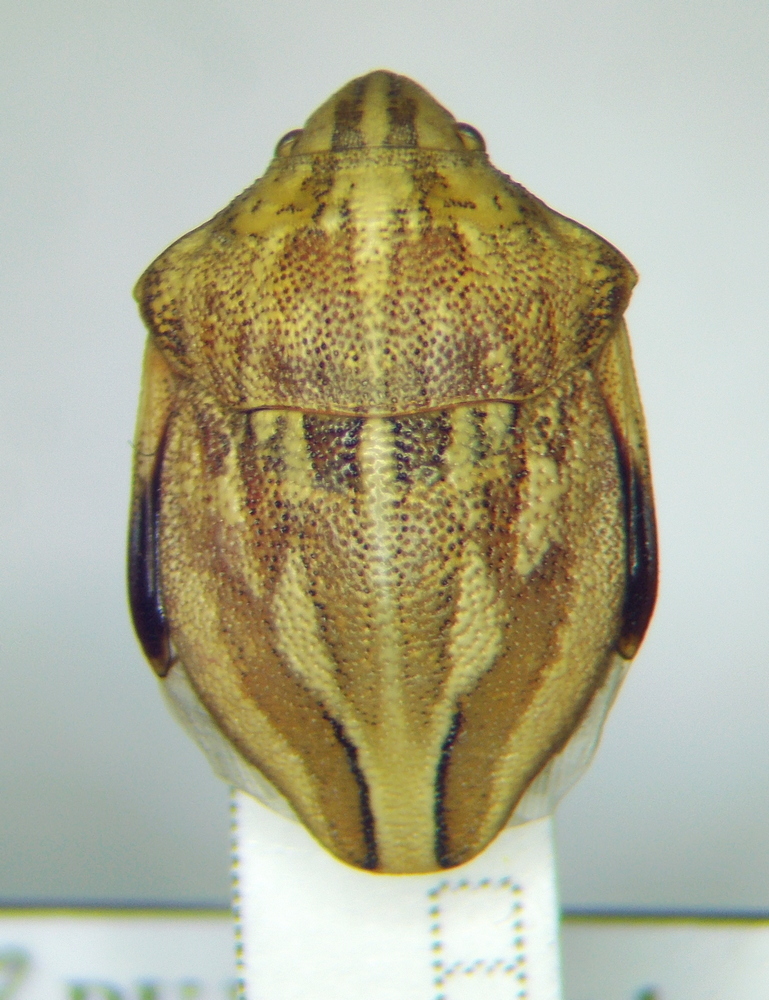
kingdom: Animalia
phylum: Arthropoda
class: Insecta
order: Hemiptera
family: Scutelleridae
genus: Odontotarsus
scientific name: Odontotarsus purpureolineatus
